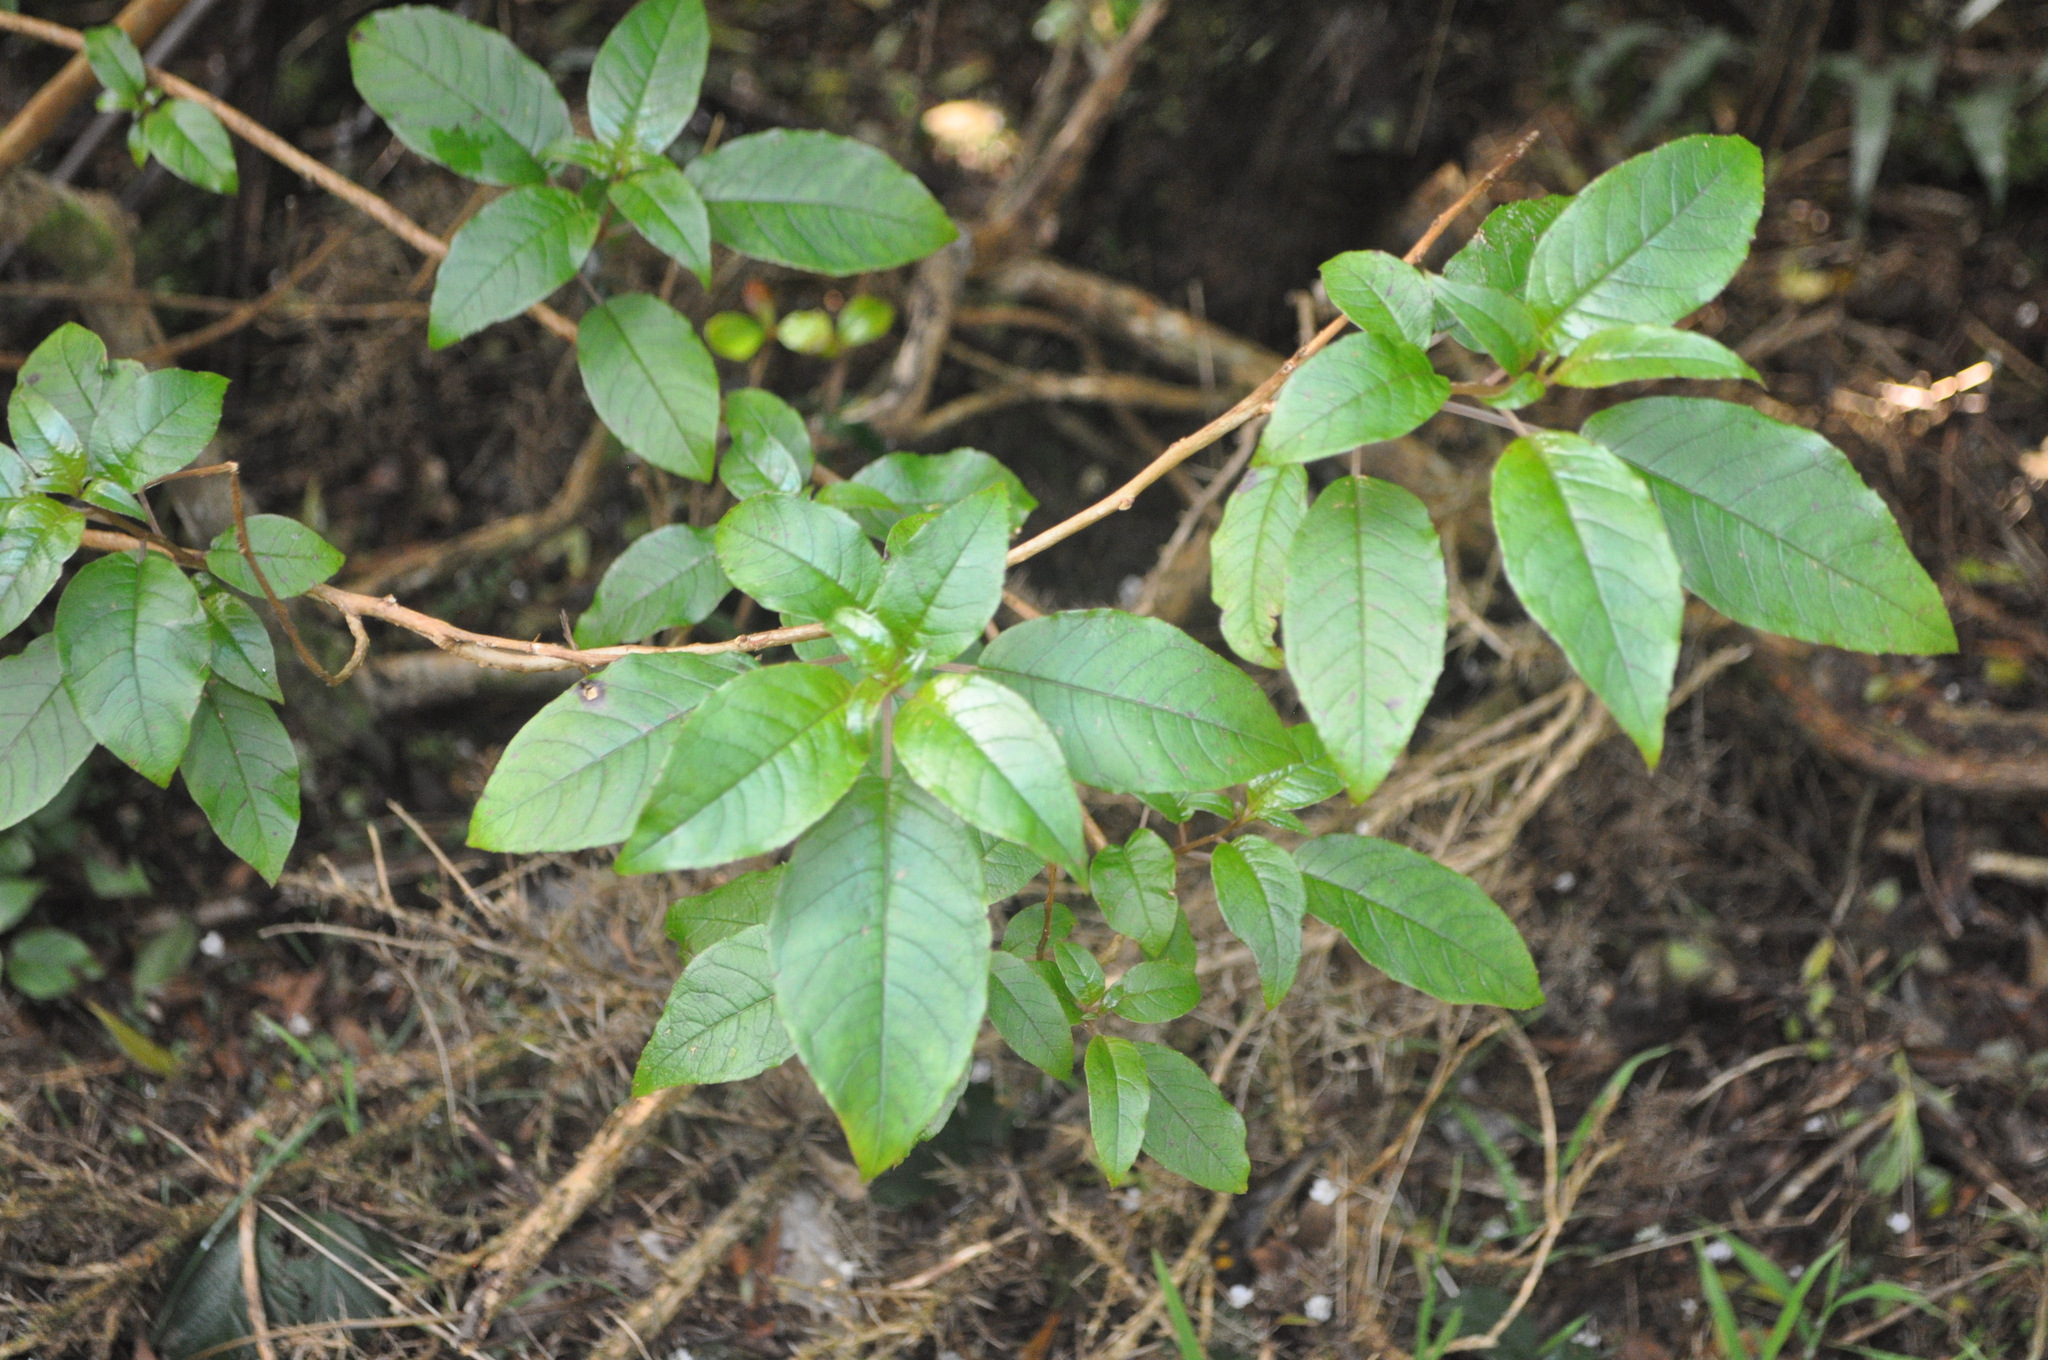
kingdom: Plantae
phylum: Tracheophyta
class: Magnoliopsida
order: Myrtales
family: Onagraceae
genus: Fuchsia
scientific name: Fuchsia excorticata
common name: Tree fuchsia
